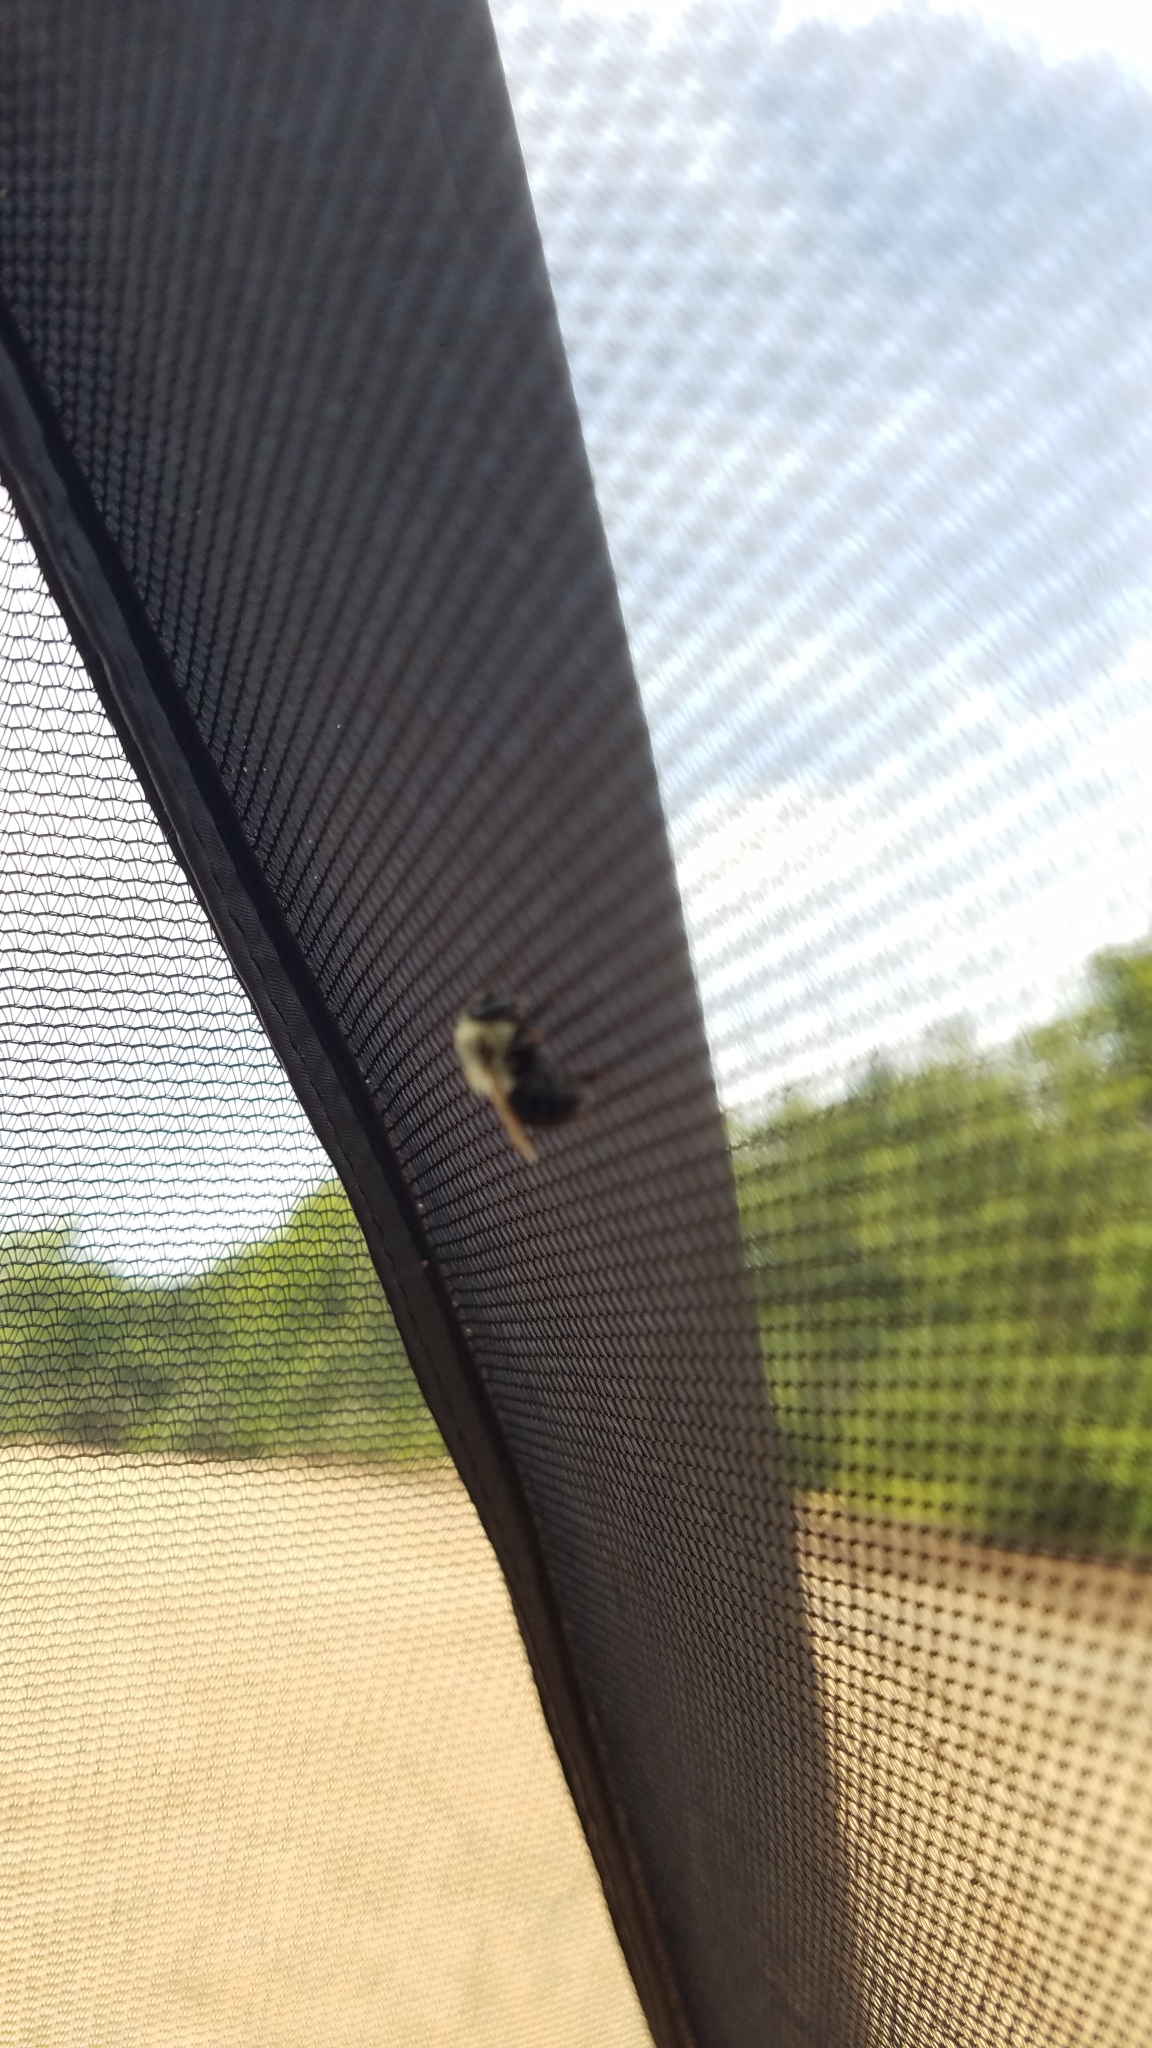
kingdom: Animalia
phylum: Arthropoda
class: Insecta
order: Hymenoptera
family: Apidae
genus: Bombus
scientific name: Bombus impatiens
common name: Common eastern bumble bee
